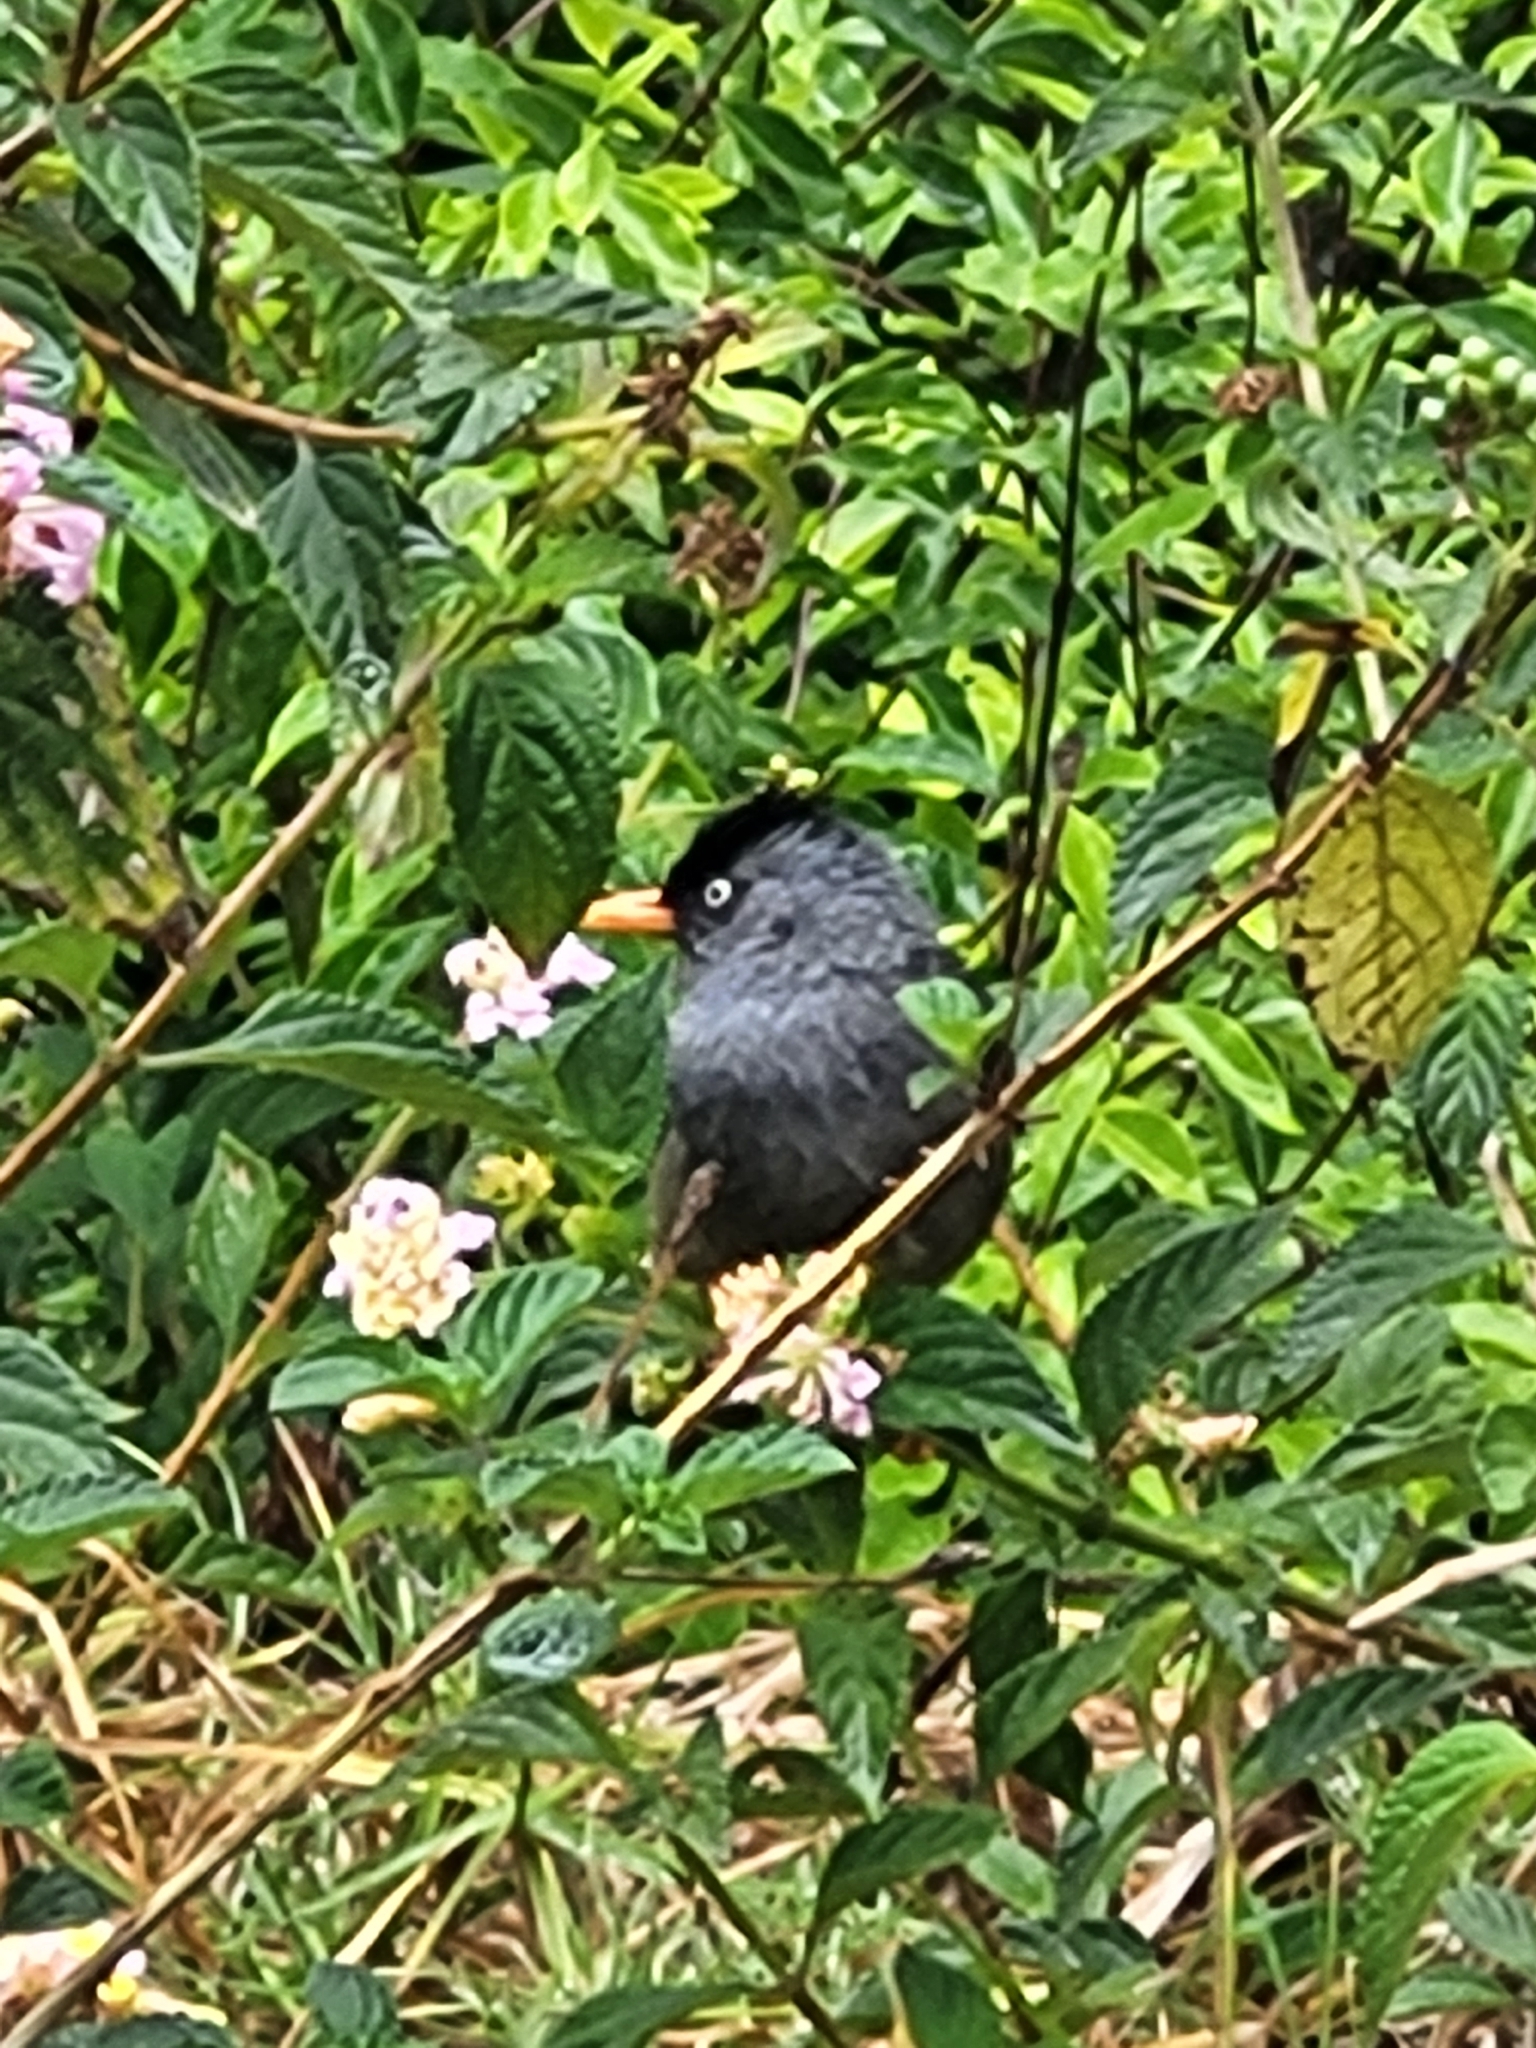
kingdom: Animalia
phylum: Chordata
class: Aves
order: Passeriformes
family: Pycnonotidae
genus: Hypsipetes
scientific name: Hypsipetes borbonicus
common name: Reunion bulbul
